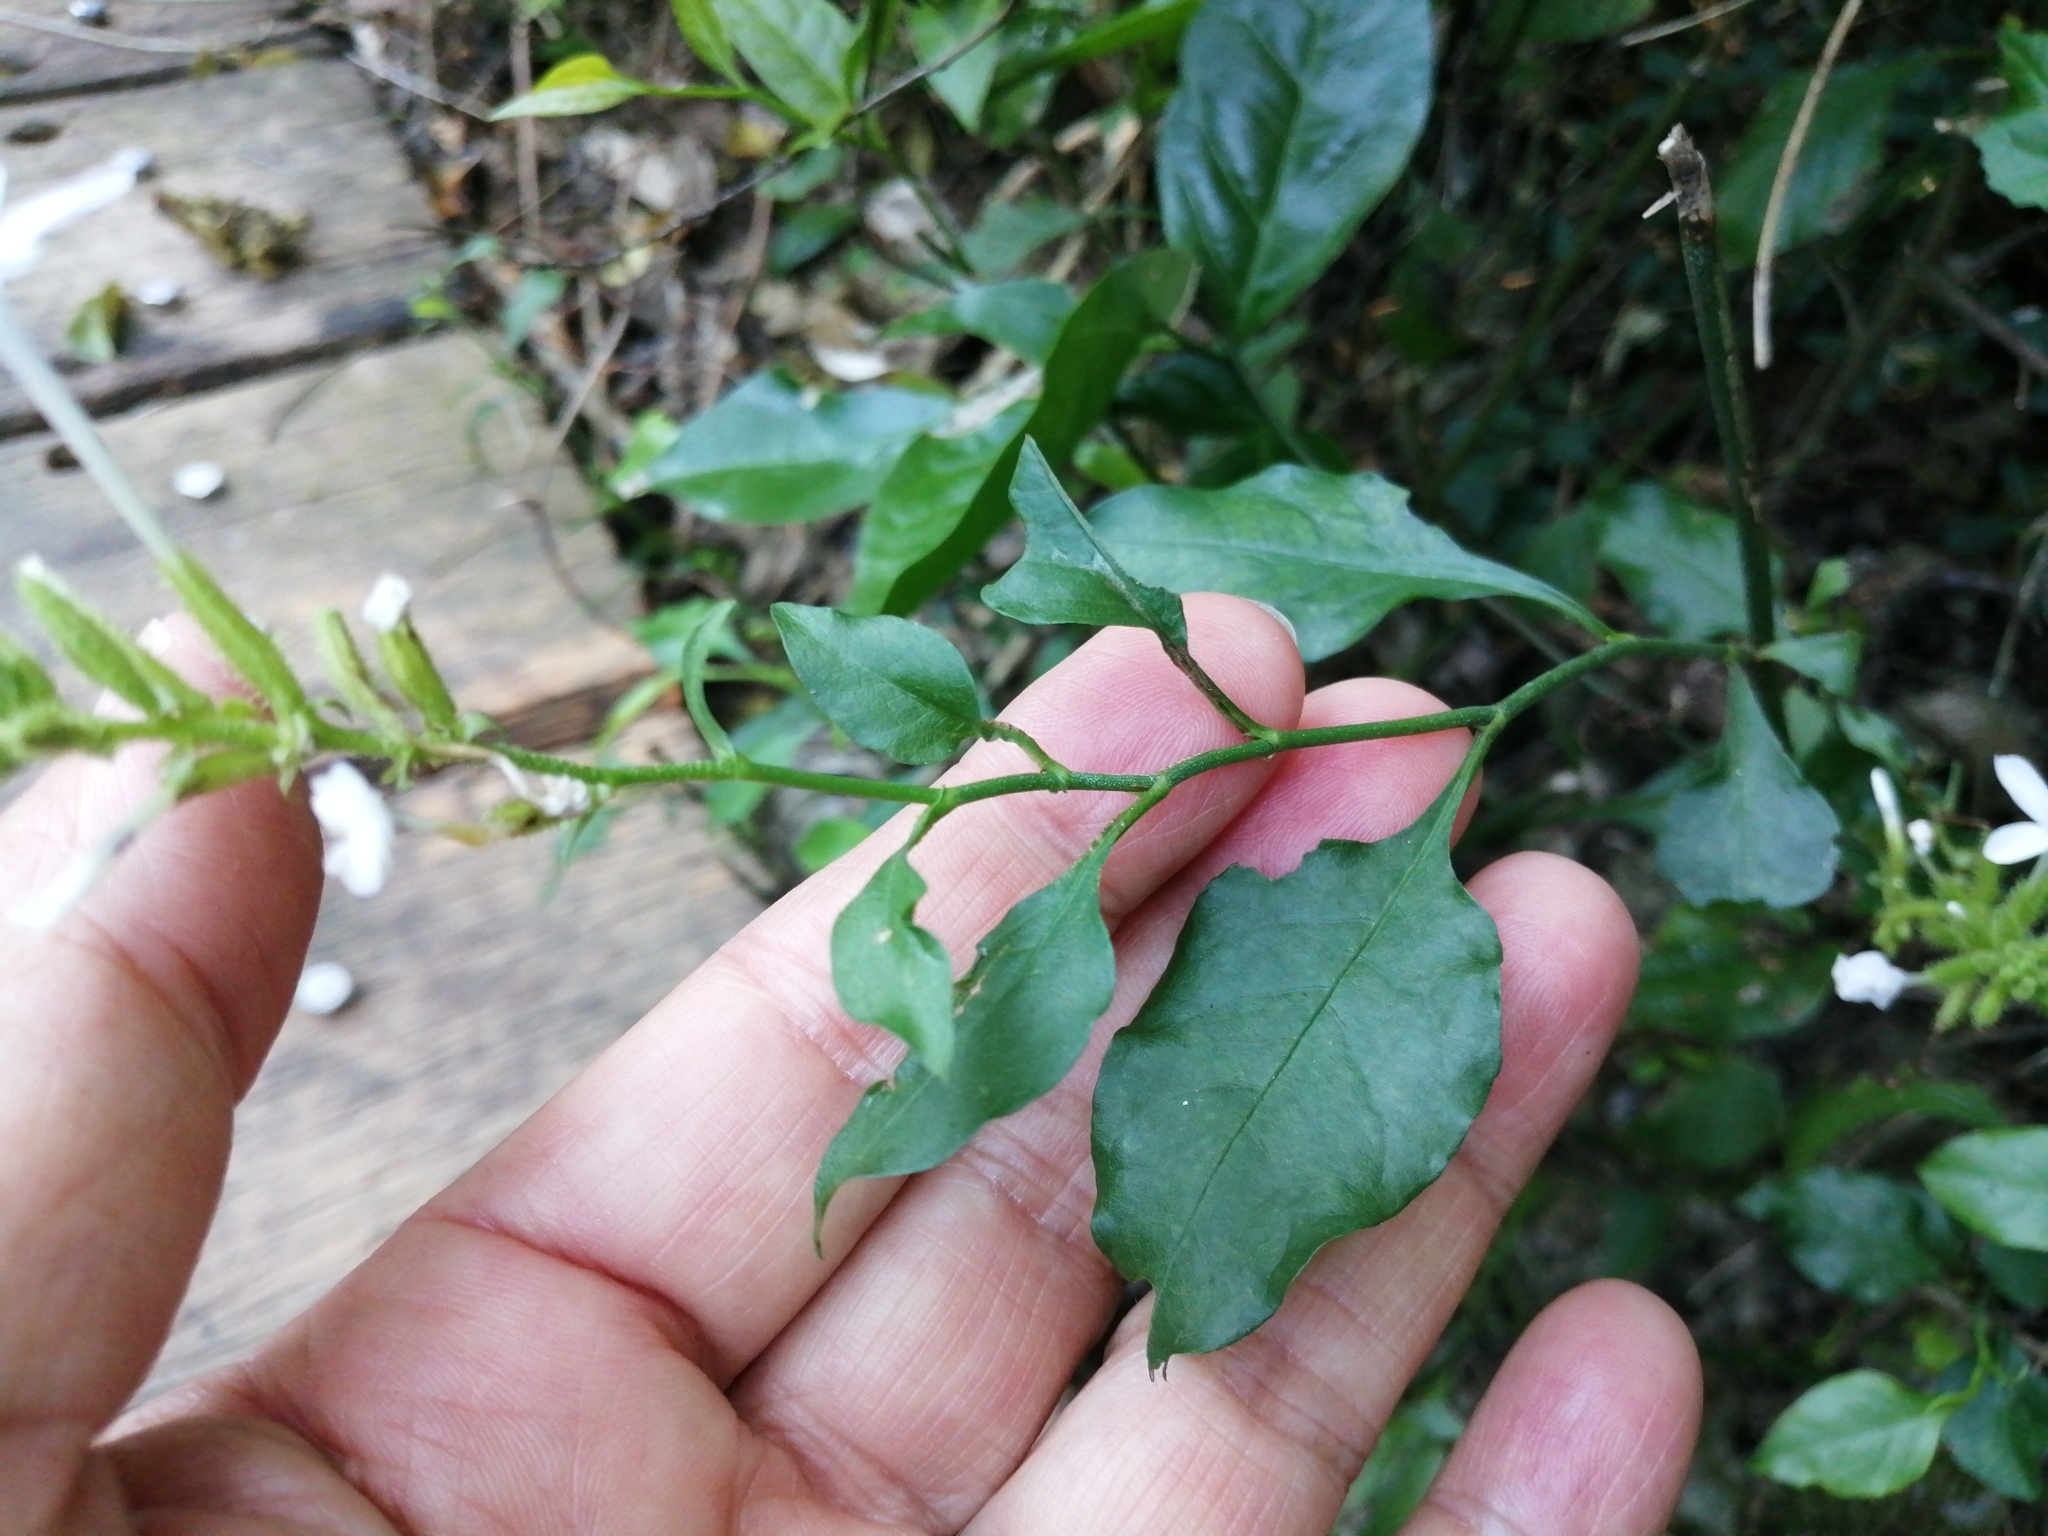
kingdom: Plantae
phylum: Tracheophyta
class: Magnoliopsida
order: Caryophyllales
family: Plumbaginaceae
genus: Plumbago
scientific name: Plumbago zeylanica
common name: Doctorbush
